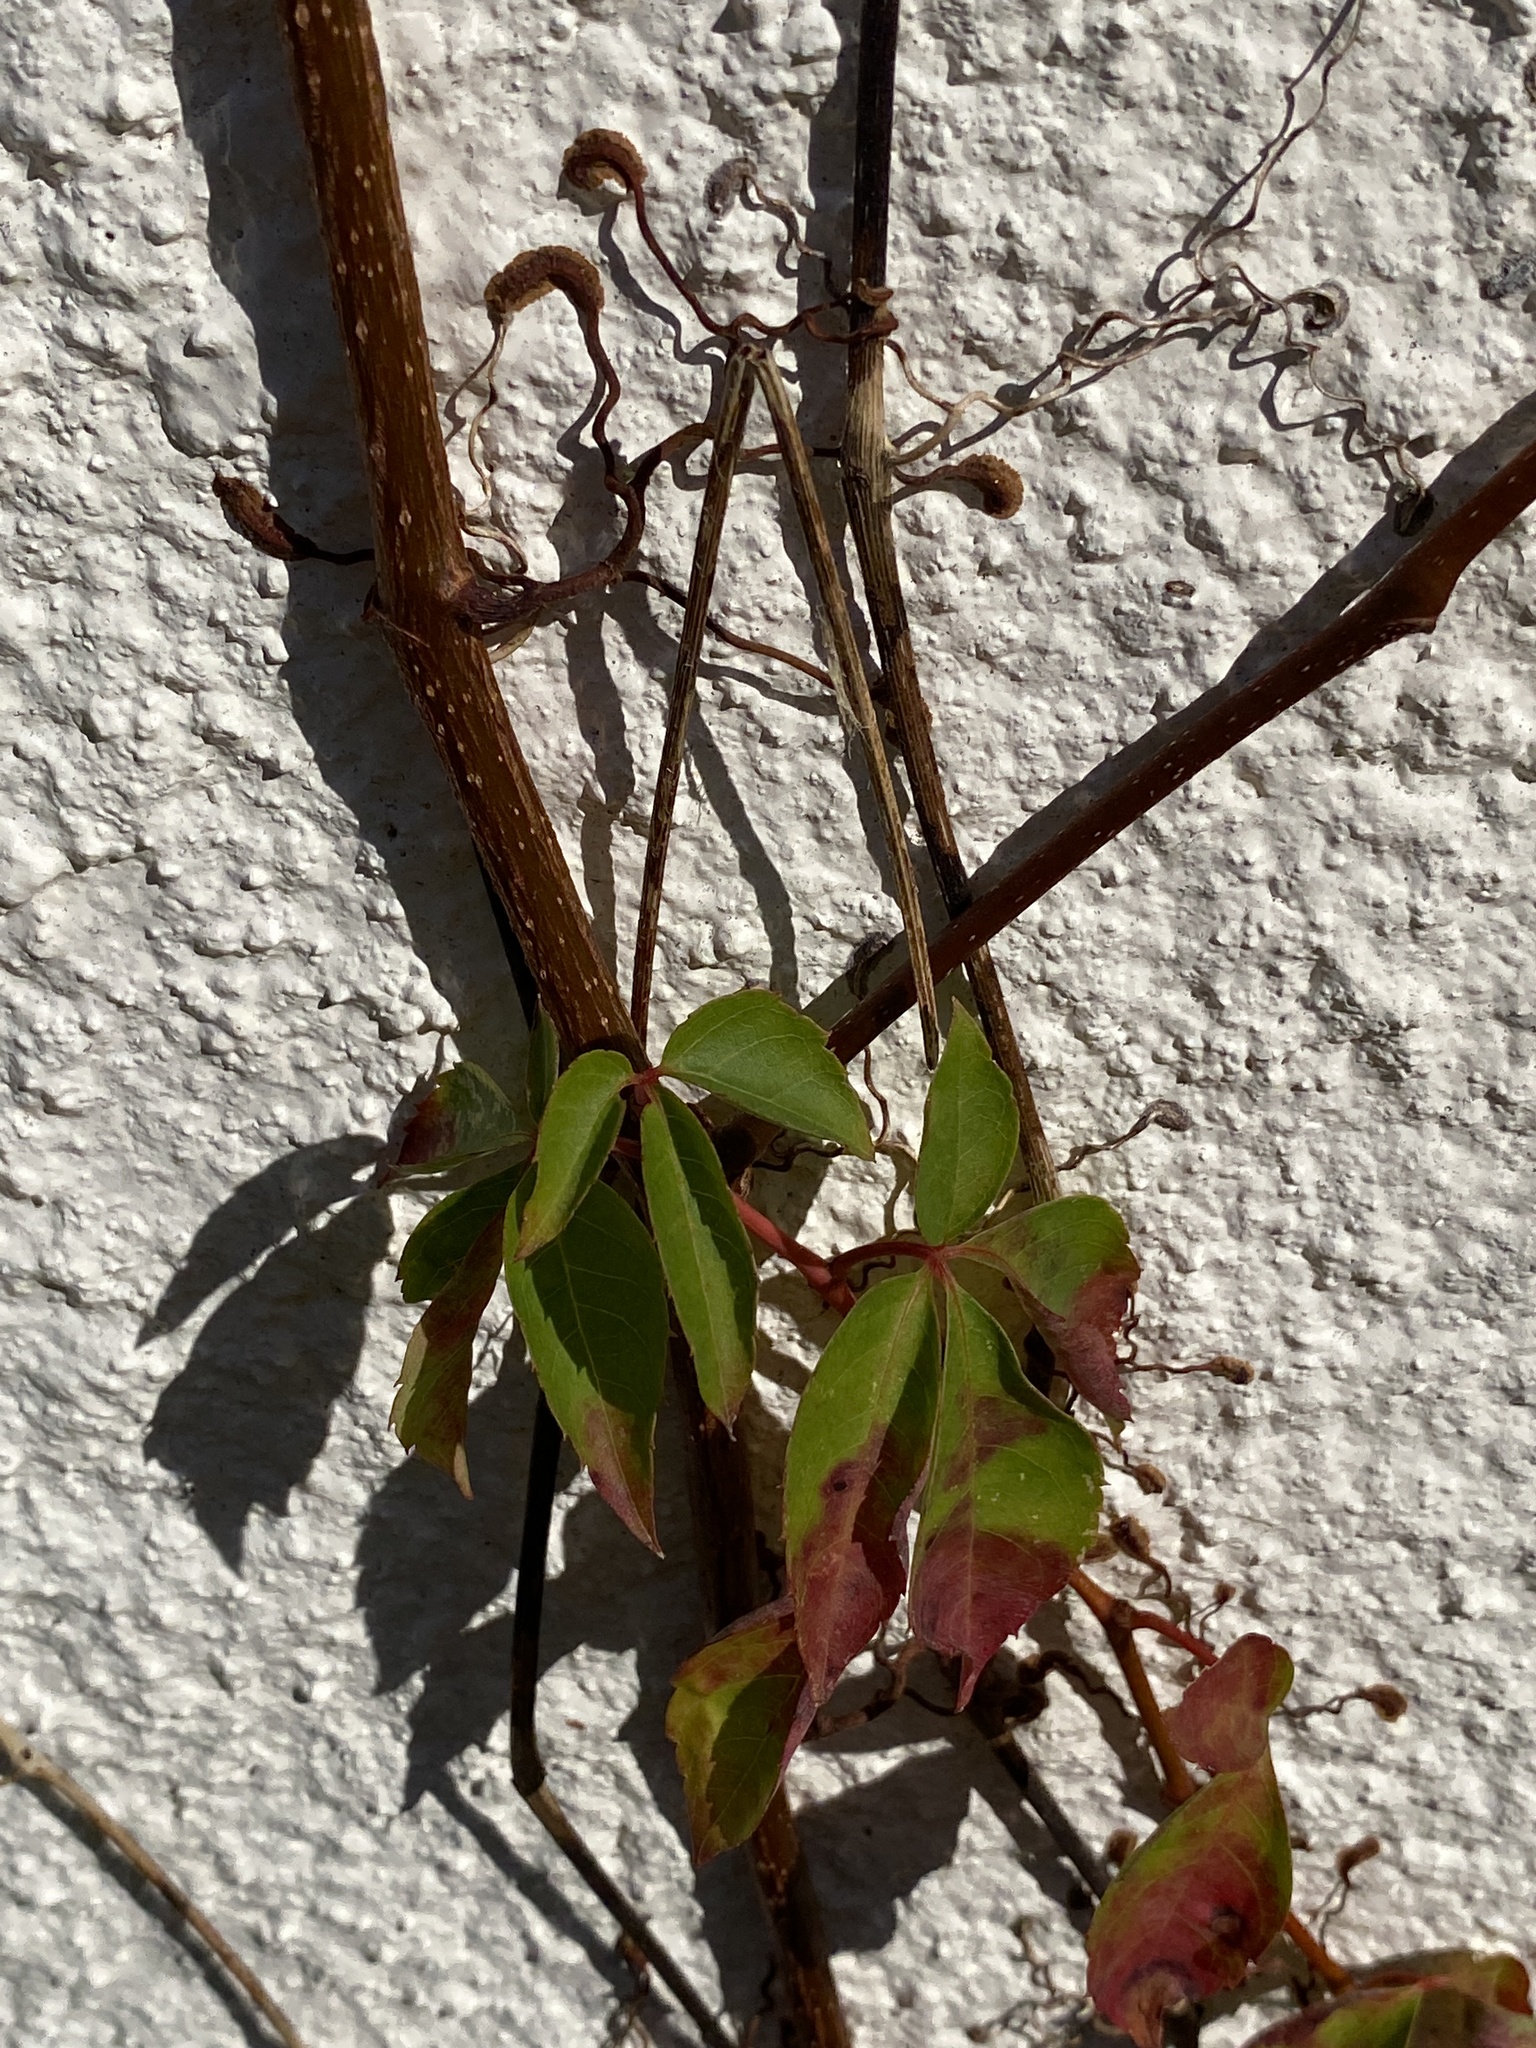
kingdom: Plantae
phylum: Tracheophyta
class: Magnoliopsida
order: Vitales
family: Vitaceae
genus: Parthenocissus
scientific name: Parthenocissus quinquefolia
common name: Virginia-creeper
